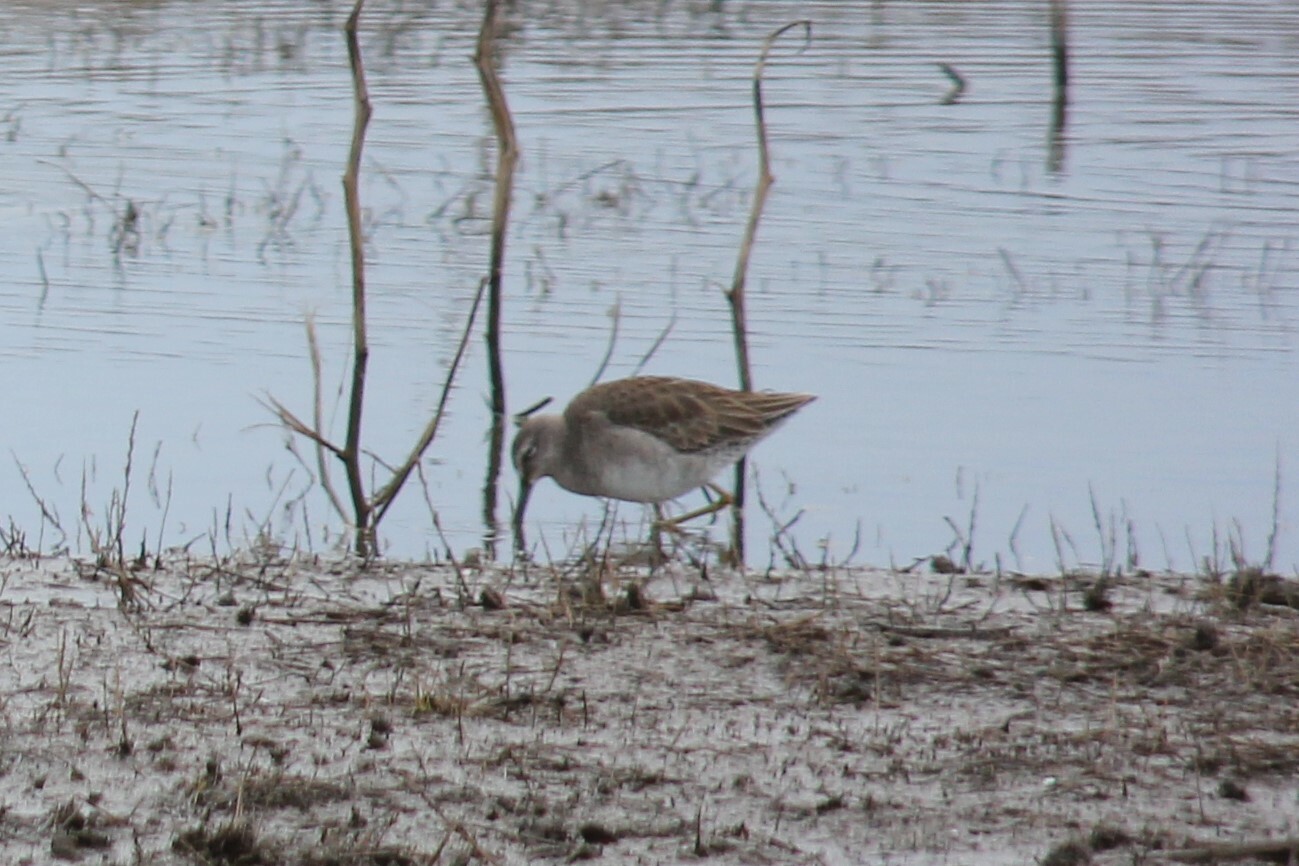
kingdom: Animalia
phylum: Chordata
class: Aves
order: Charadriiformes
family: Scolopacidae
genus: Limnodromus
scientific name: Limnodromus scolopaceus
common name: Long-billed dowitcher
